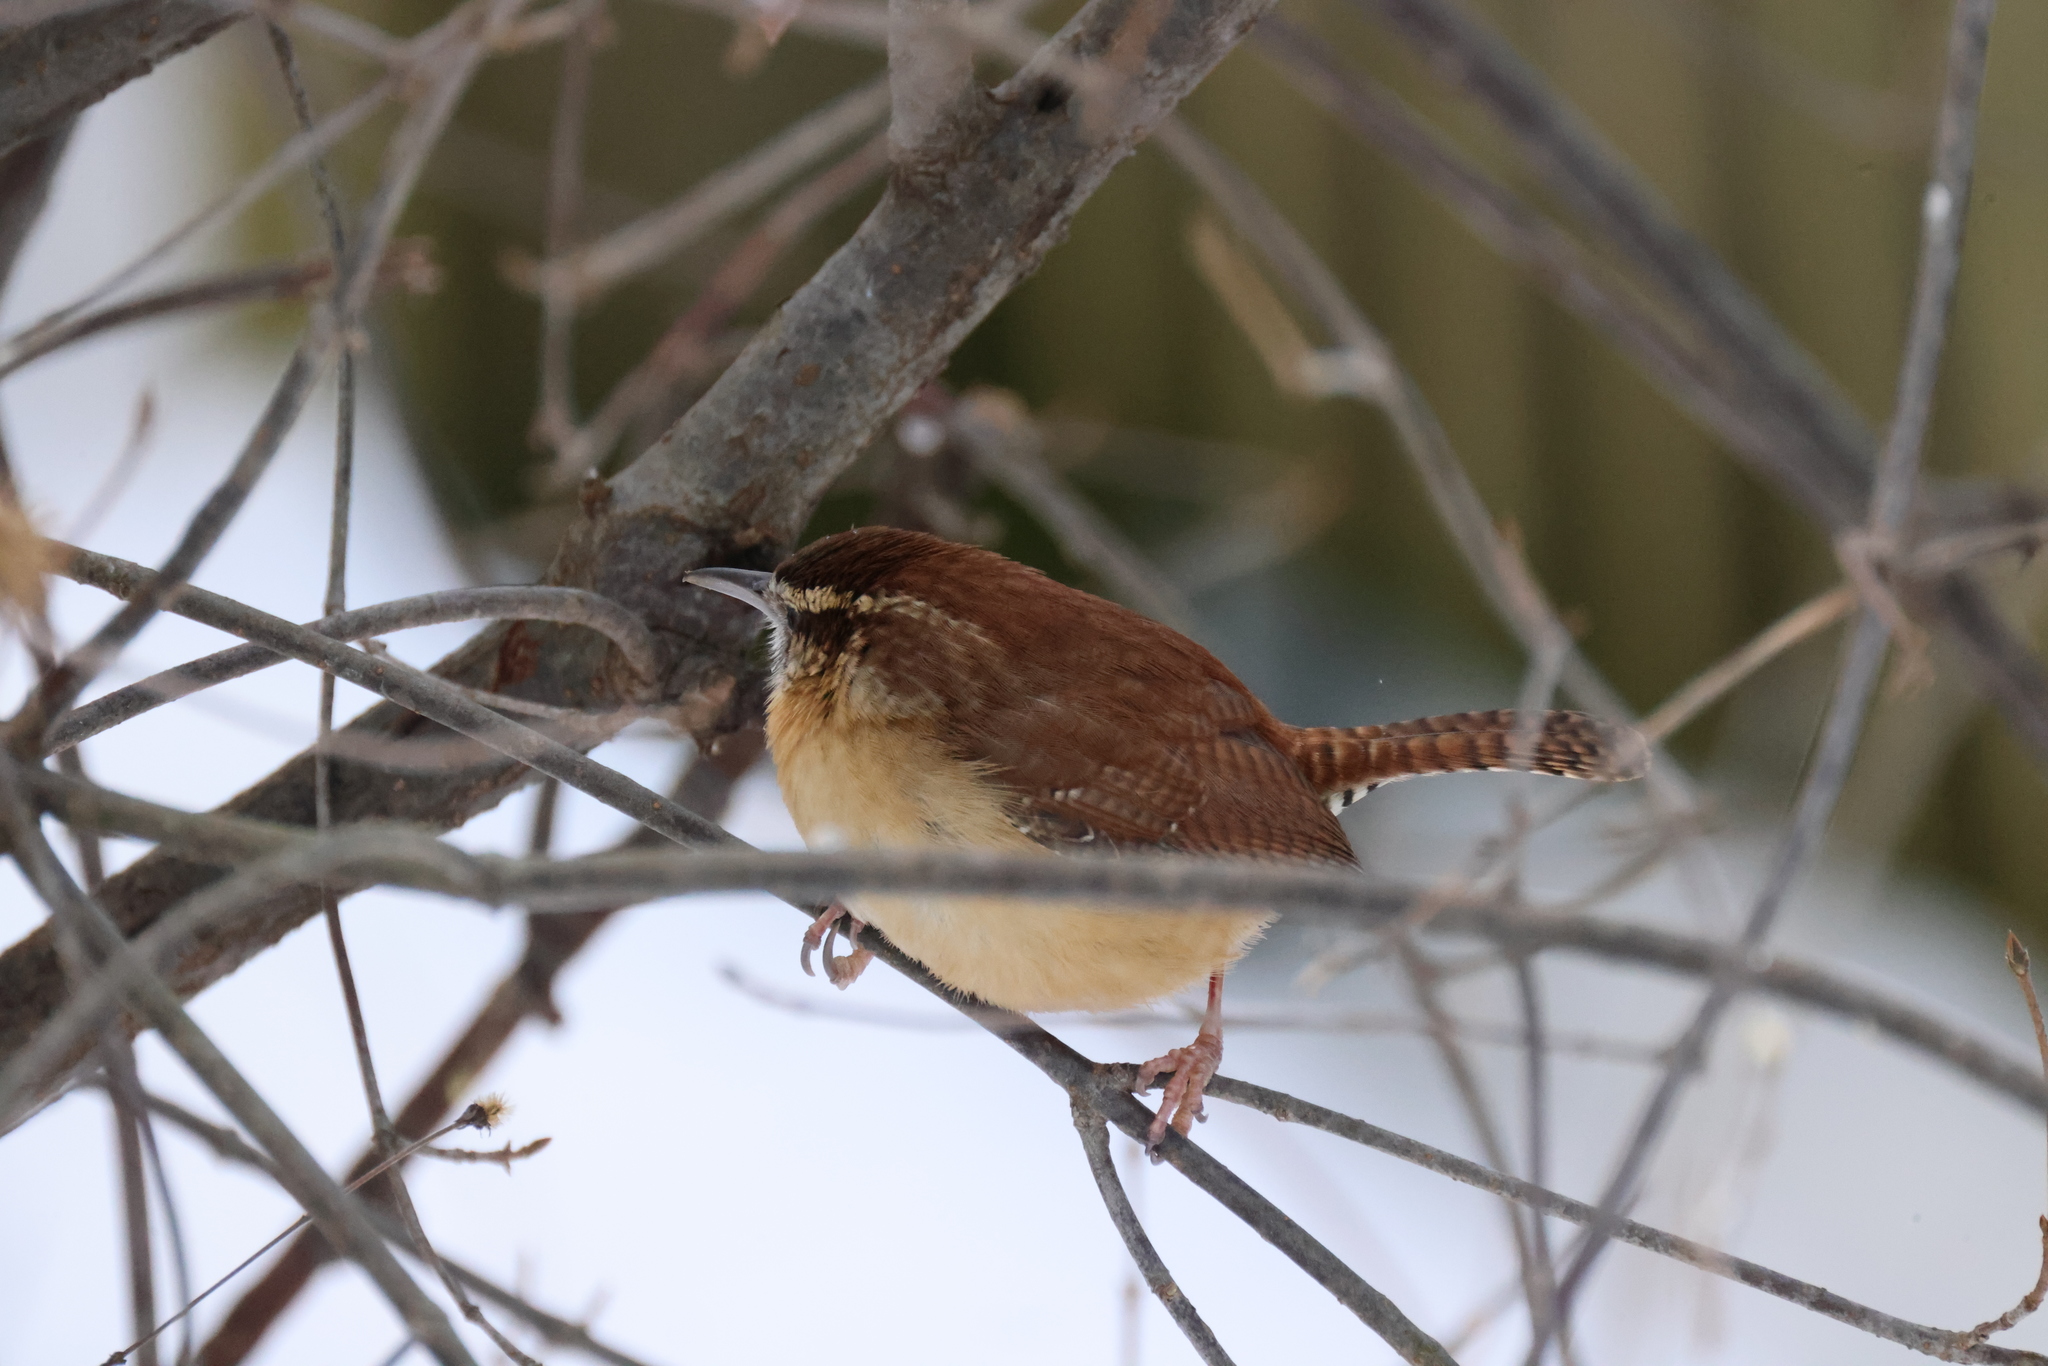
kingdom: Animalia
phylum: Chordata
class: Aves
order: Passeriformes
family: Troglodytidae
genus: Thryothorus
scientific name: Thryothorus ludovicianus
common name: Carolina wren
